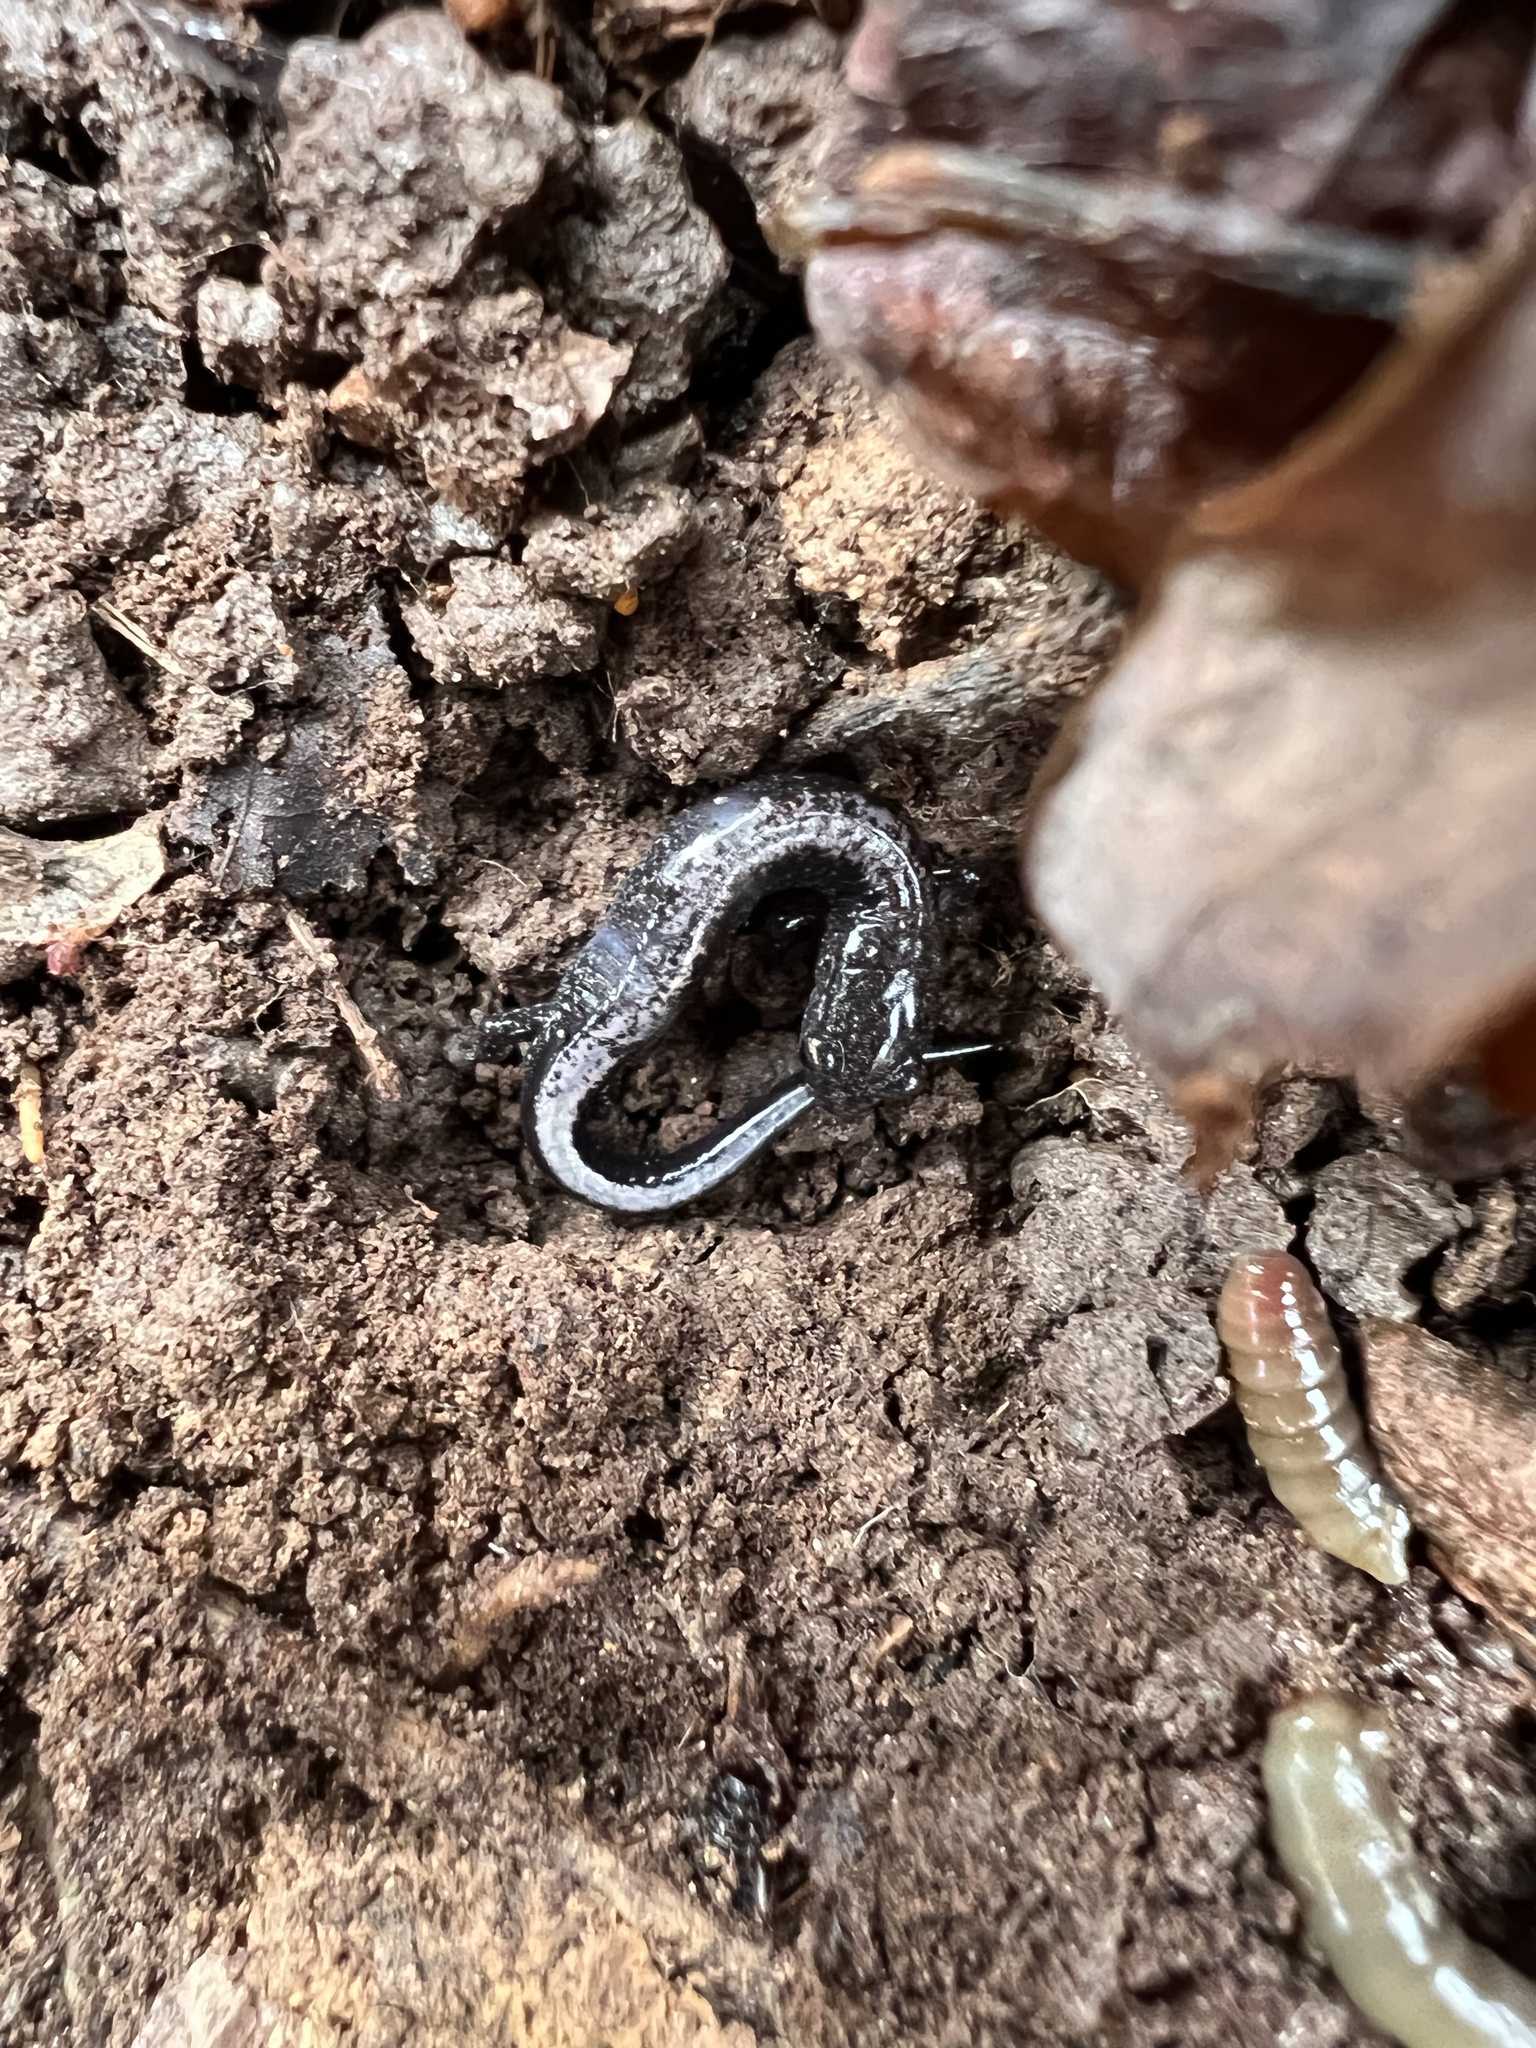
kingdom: Animalia
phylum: Chordata
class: Amphibia
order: Caudata
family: Plethodontidae
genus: Plethodon
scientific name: Plethodon cinereus
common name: Redback salamander
